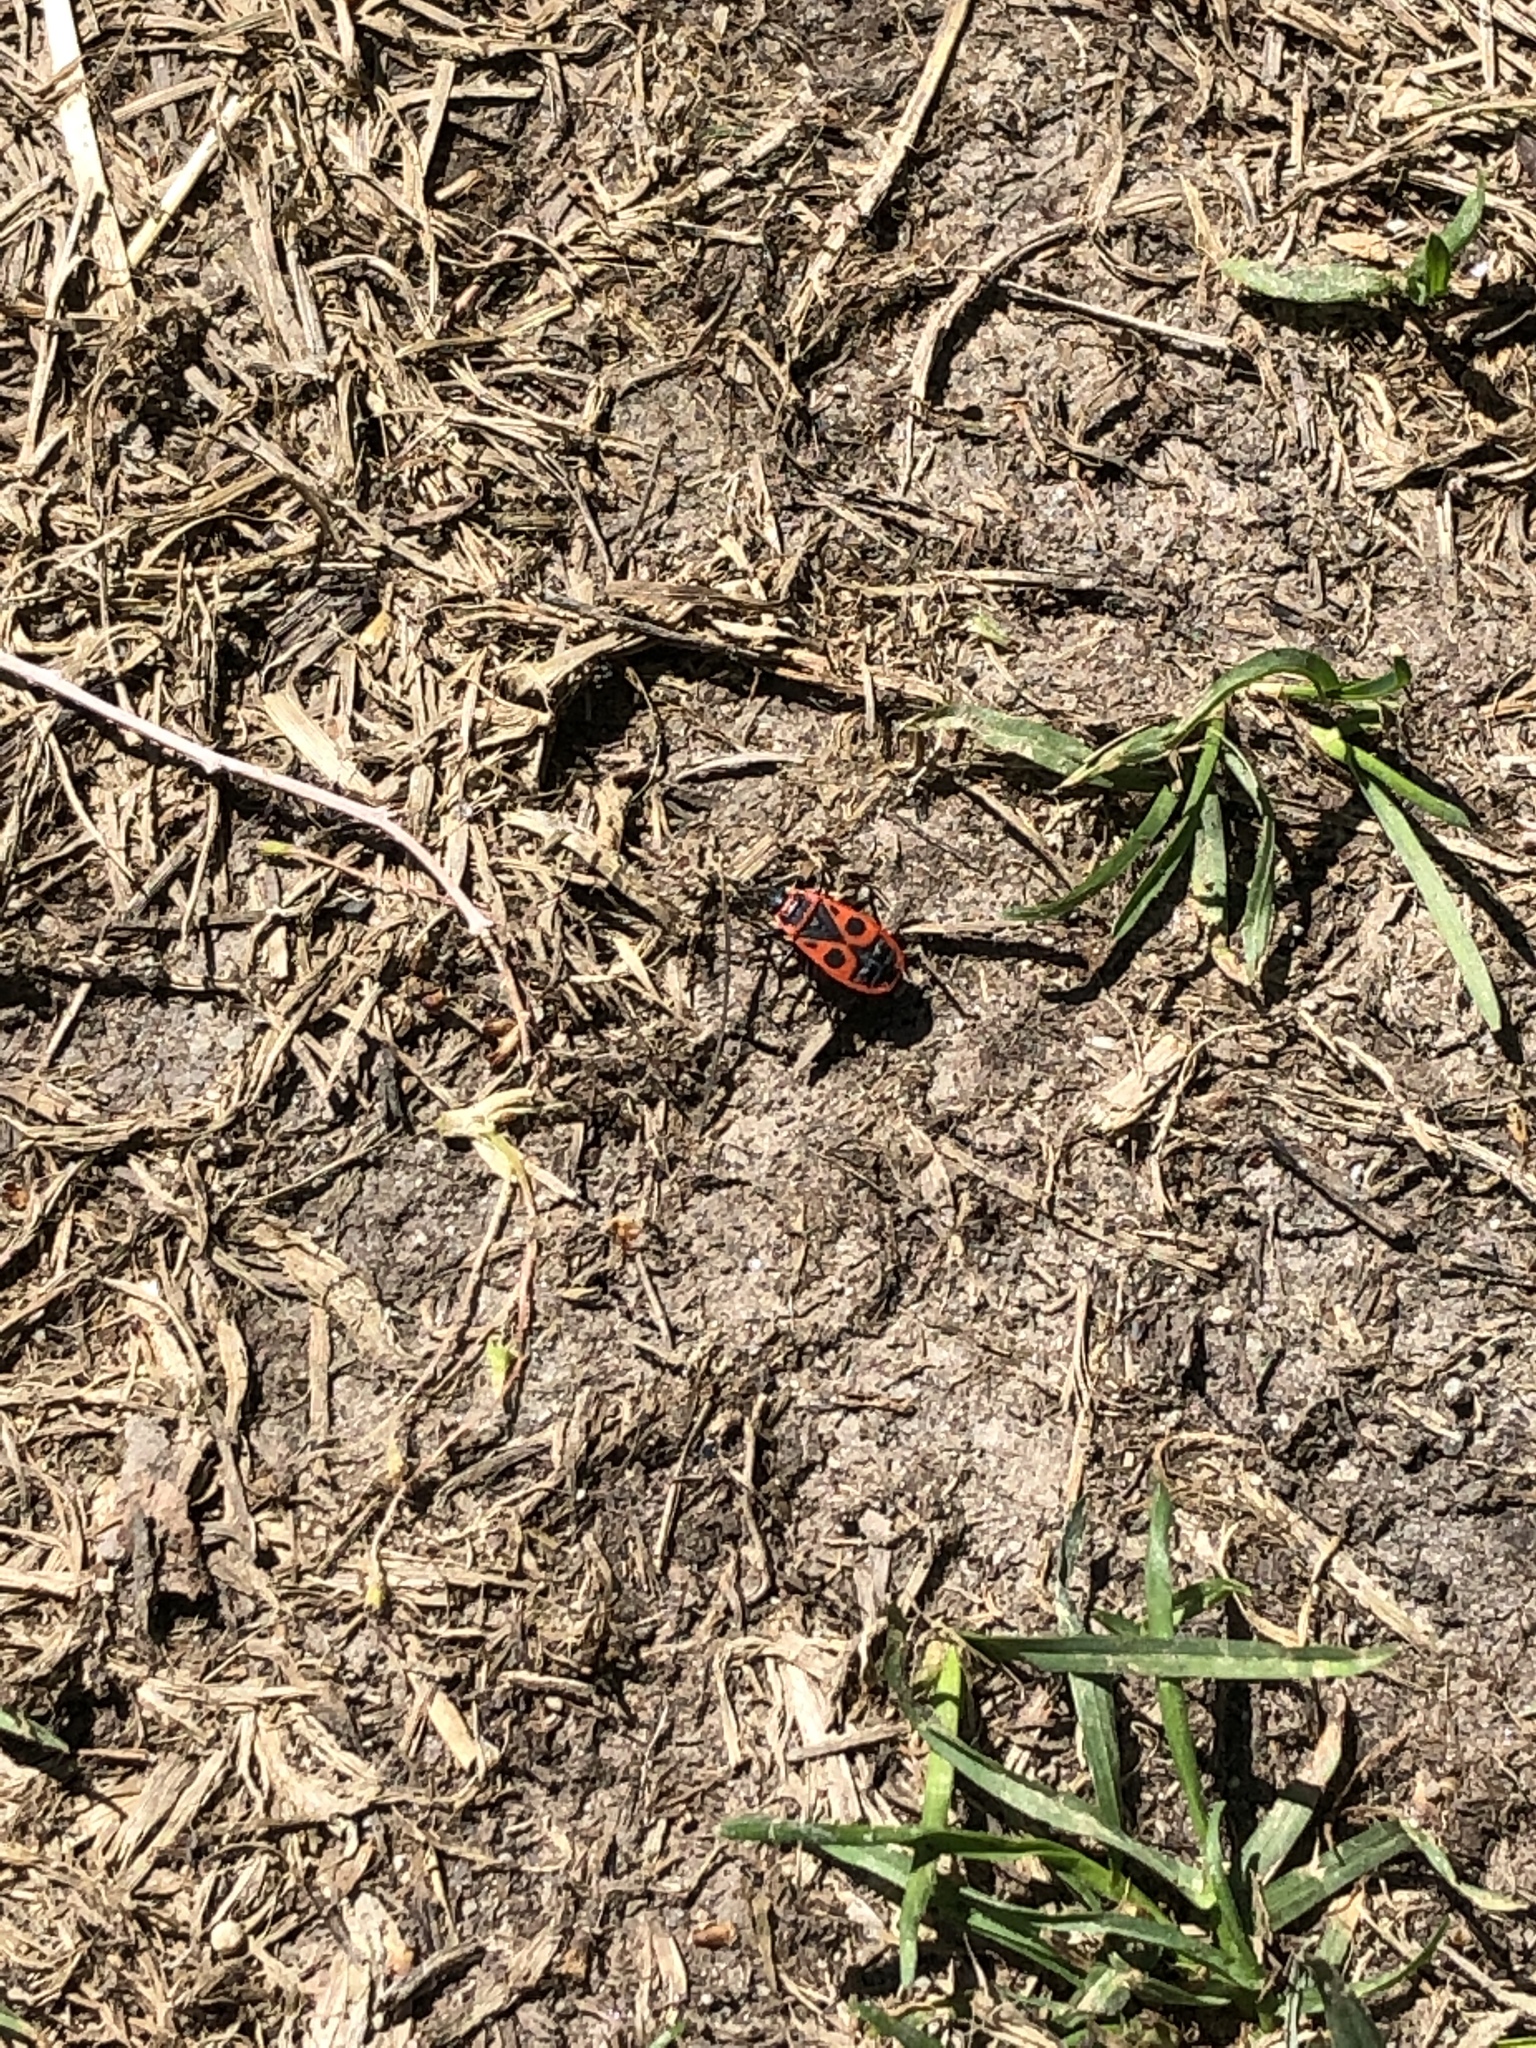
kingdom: Animalia
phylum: Arthropoda
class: Insecta
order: Hemiptera
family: Pyrrhocoridae
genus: Pyrrhocoris
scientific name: Pyrrhocoris apterus
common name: Firebug
